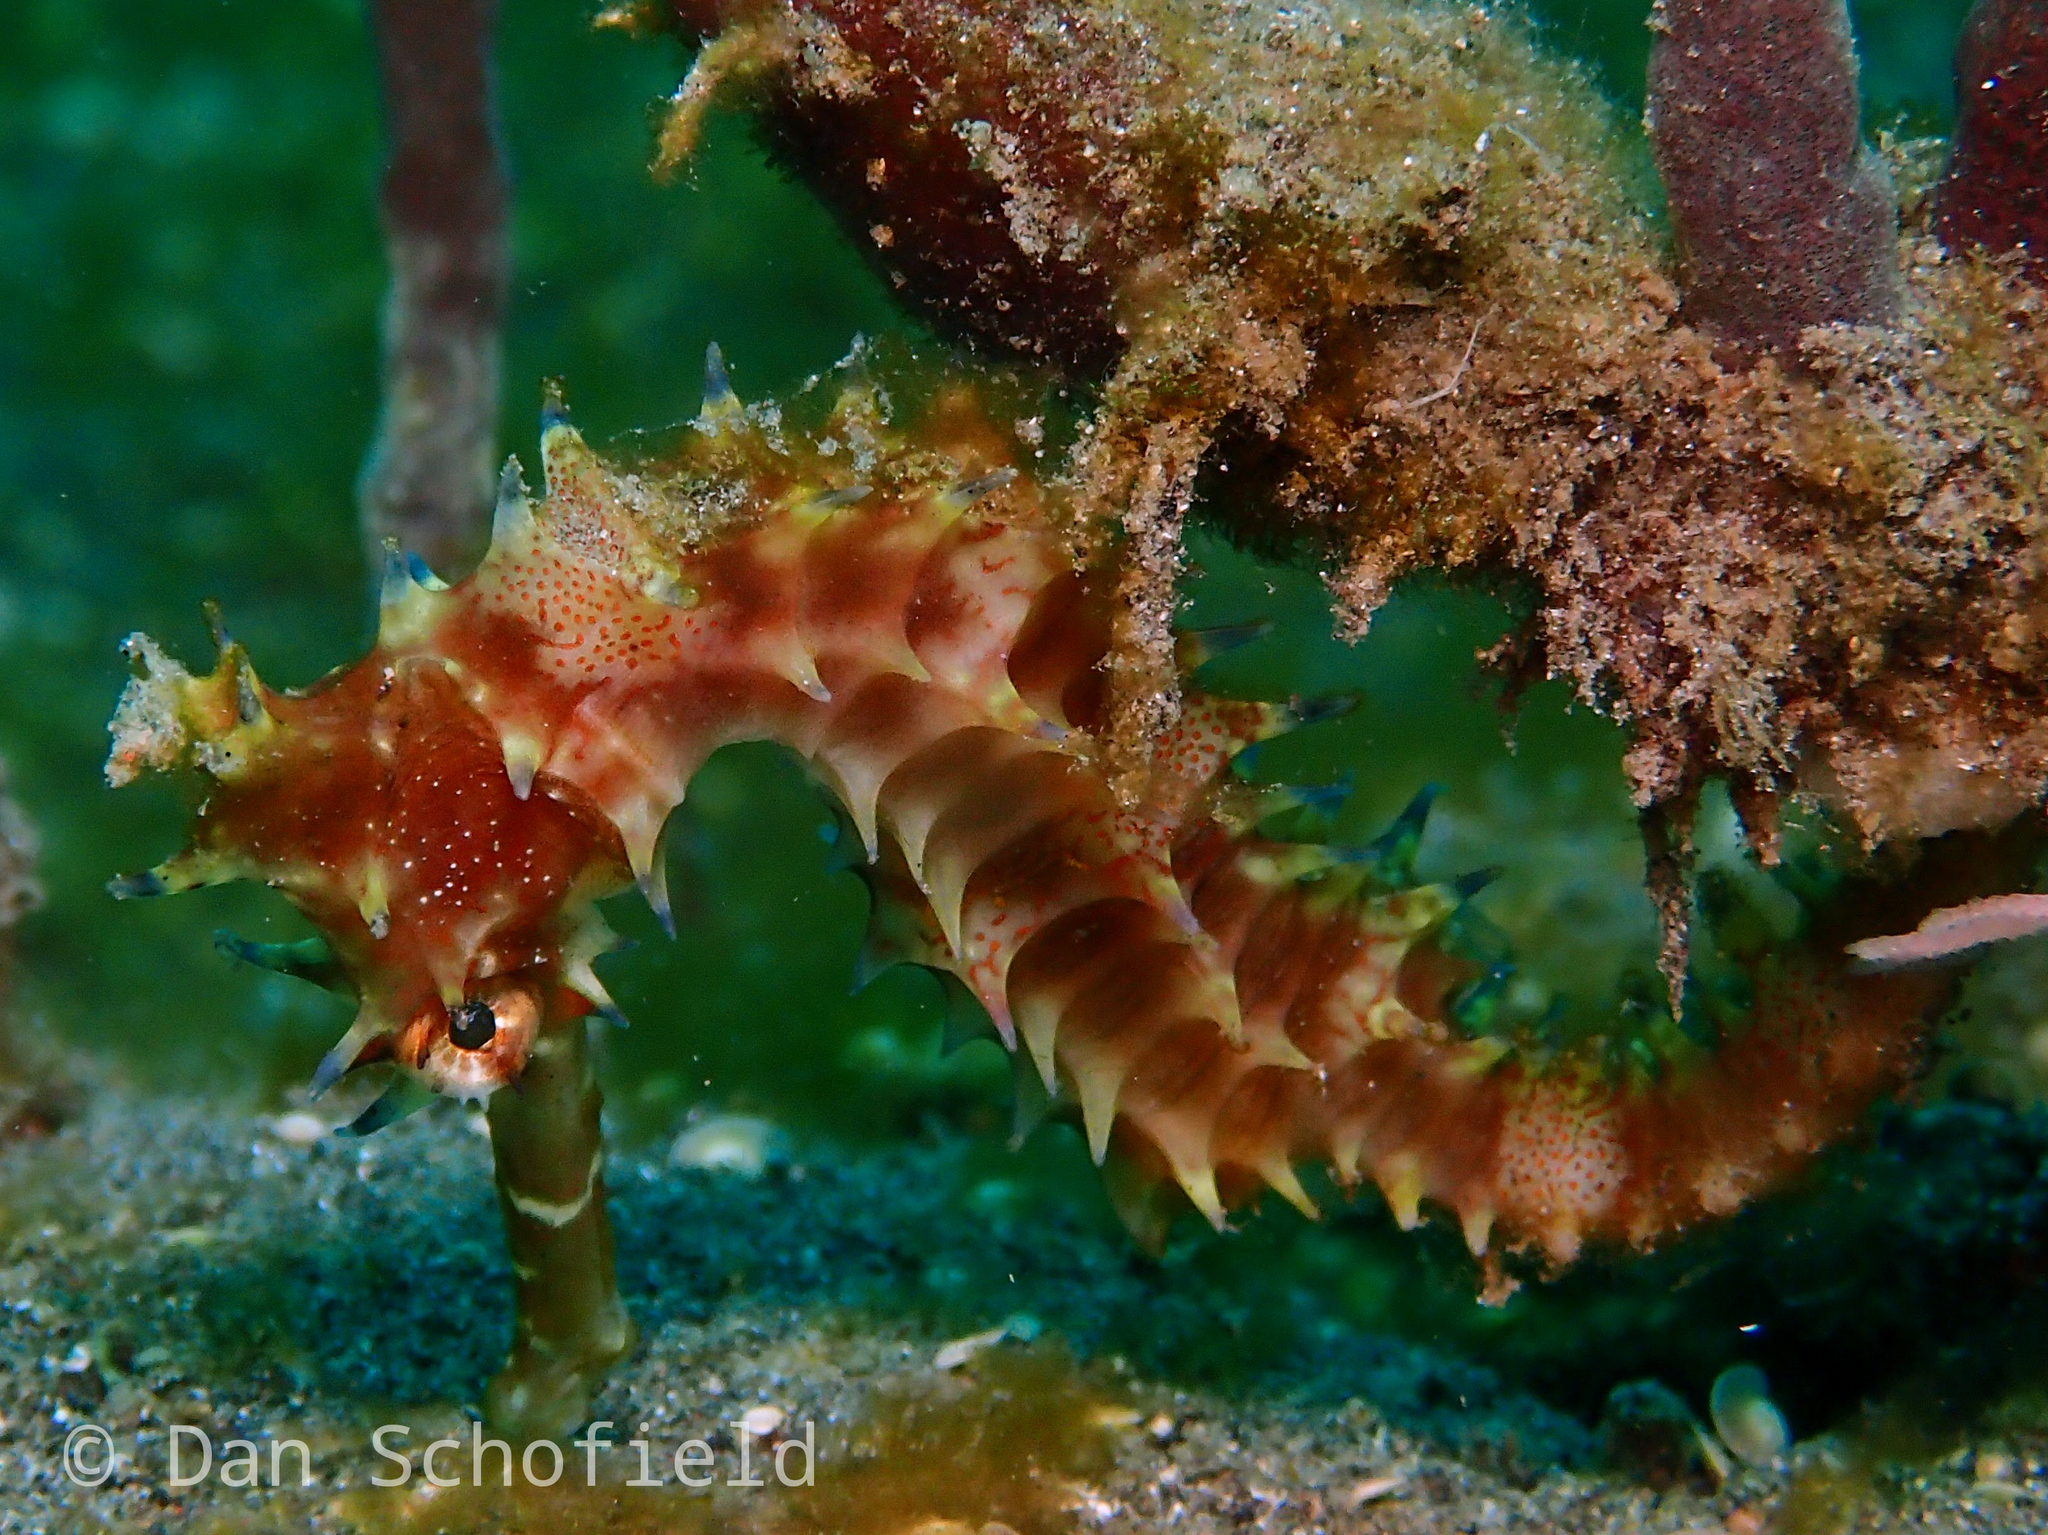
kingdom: Animalia
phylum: Chordata
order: Syngnathiformes
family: Syngnathidae
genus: Hippocampus
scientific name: Hippocampus histrix
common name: Longspine seahorse
